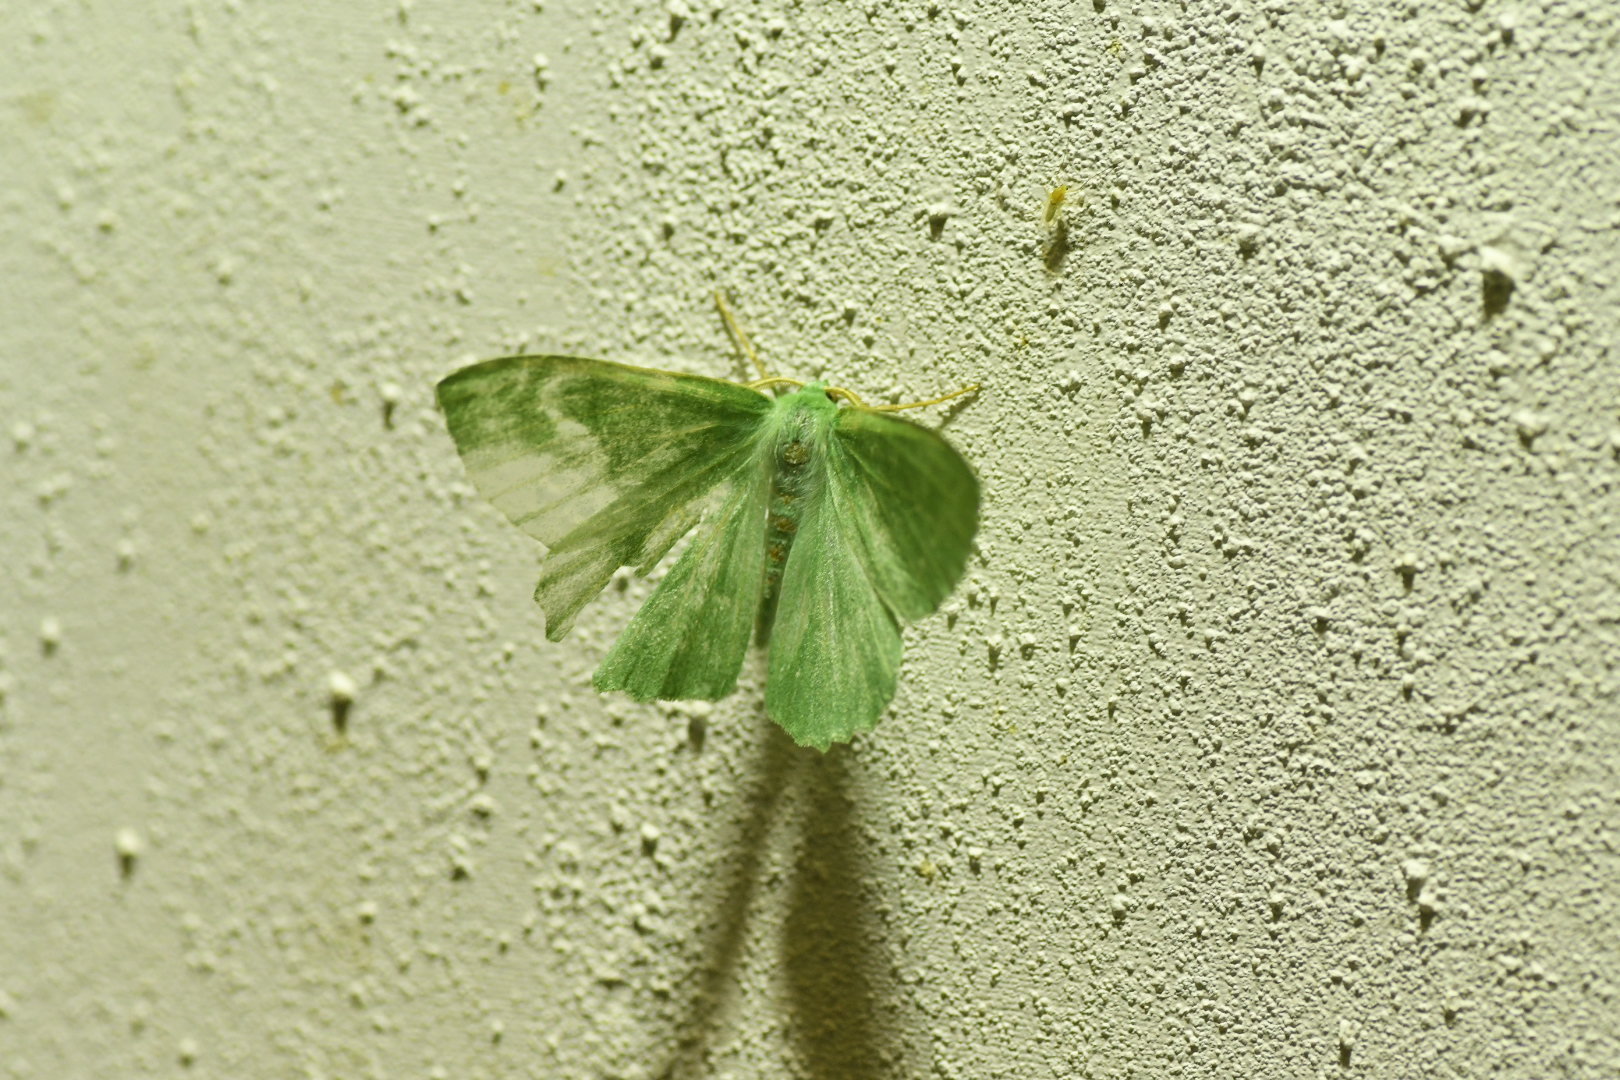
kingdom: Animalia
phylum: Arthropoda
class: Insecta
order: Lepidoptera
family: Geometridae
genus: Geometra
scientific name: Geometra papilionaria
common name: Large emerald
